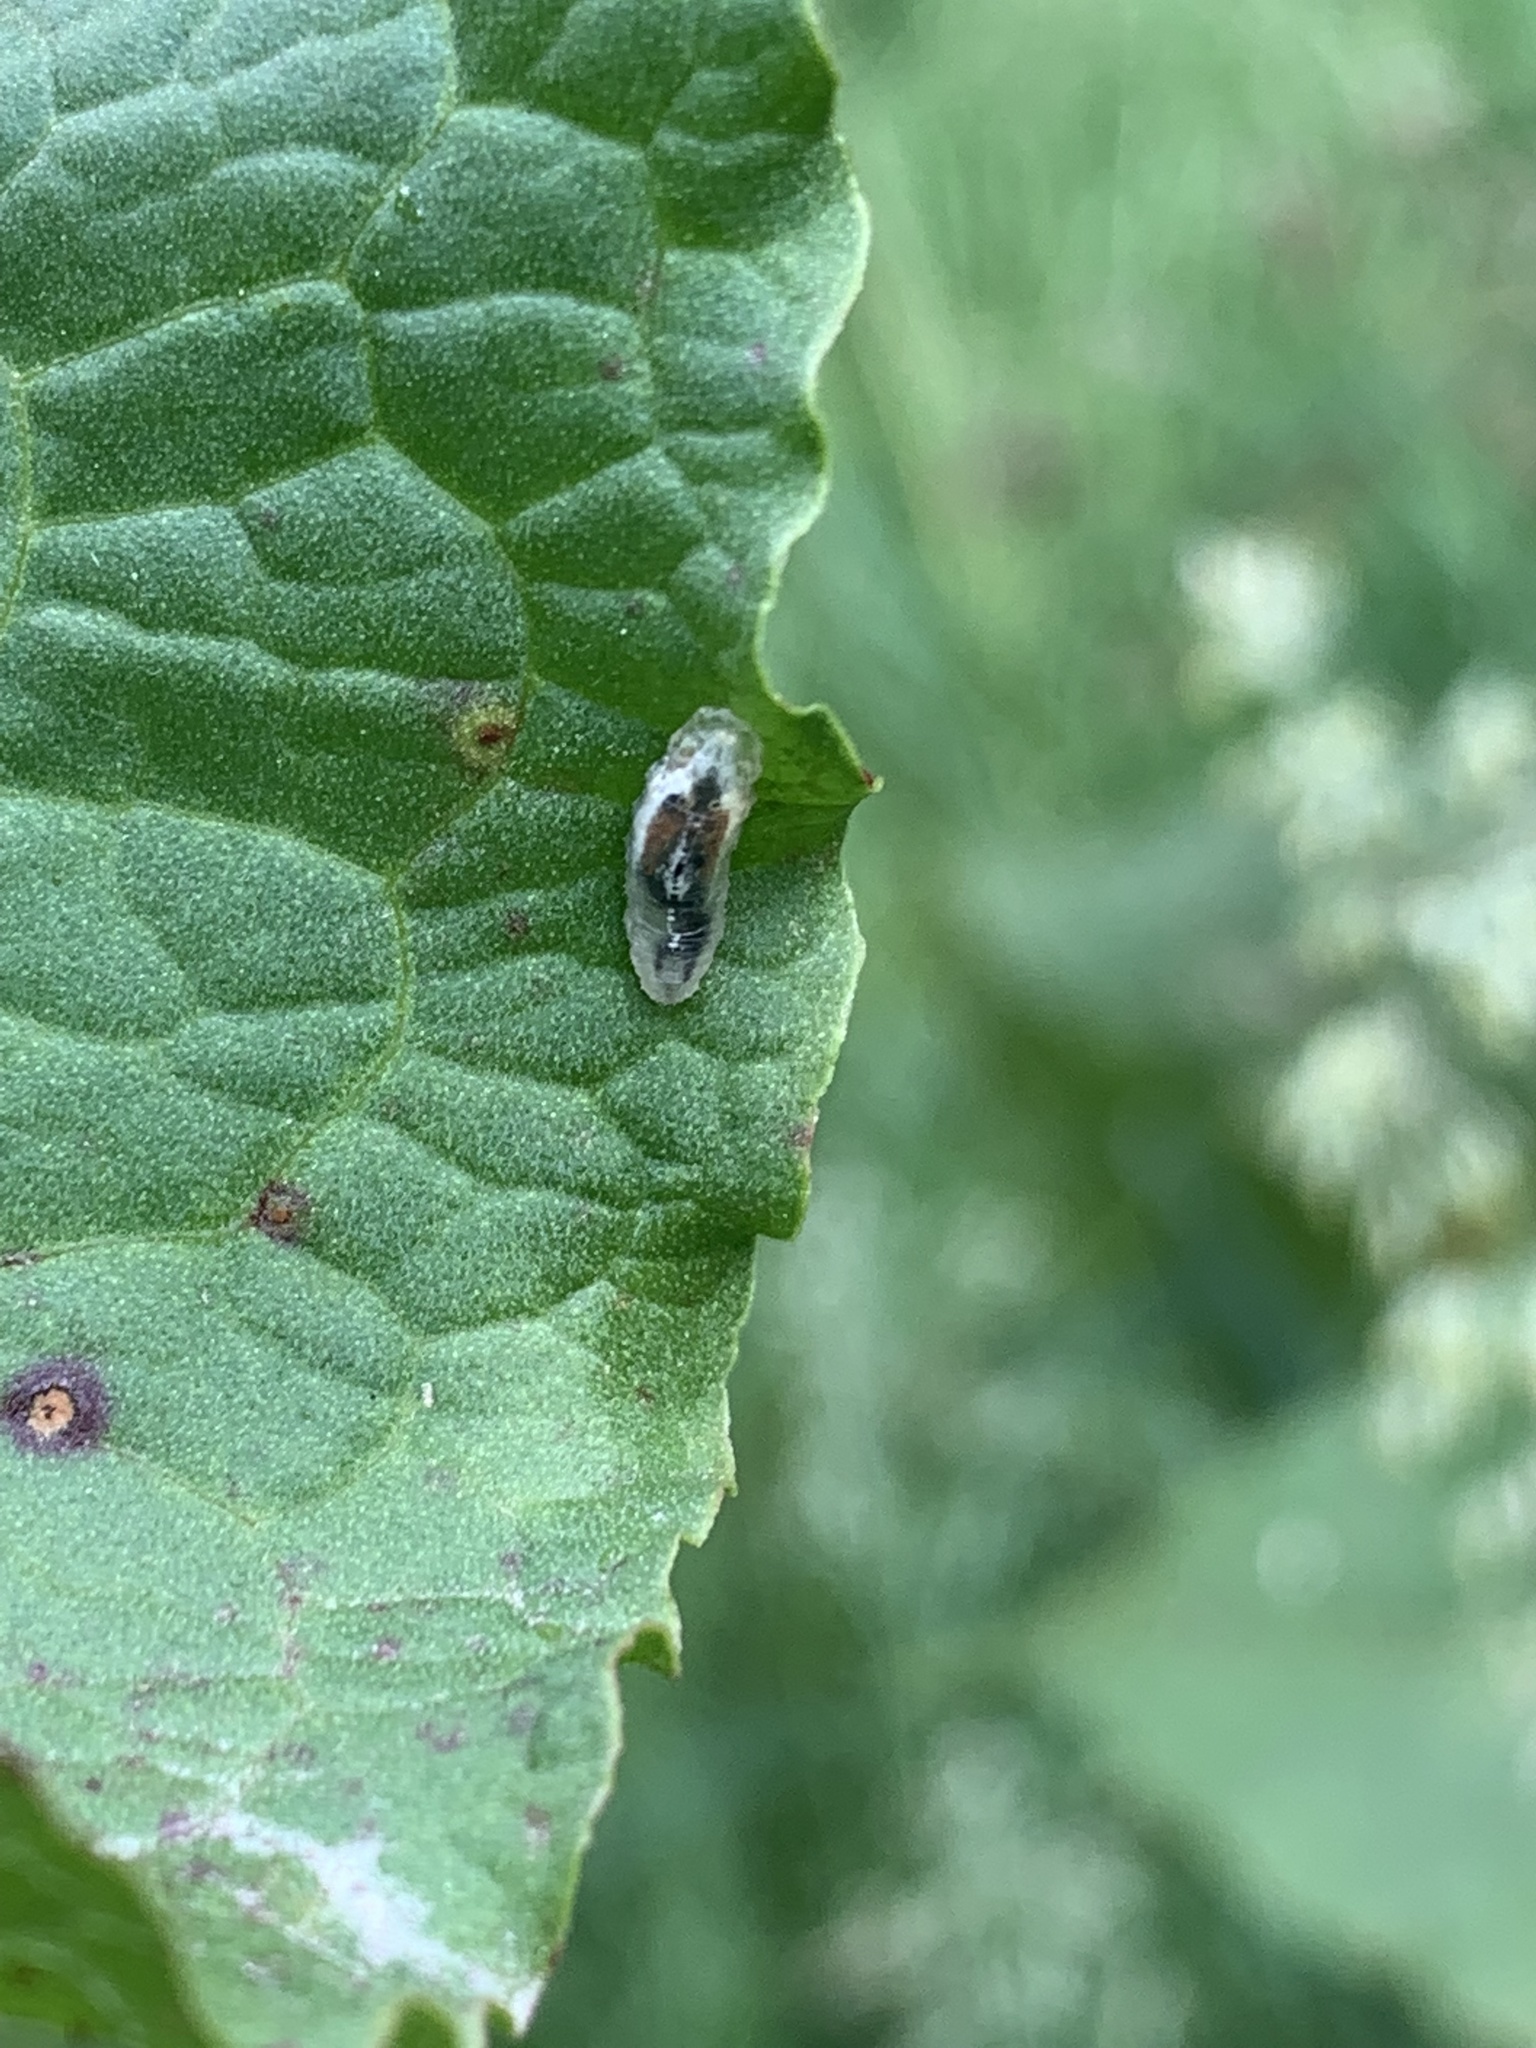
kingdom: Animalia
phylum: Arthropoda
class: Insecta
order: Diptera
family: Syrphidae
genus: Episyrphus
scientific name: Episyrphus balteatus
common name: Marmalade hoverfly
